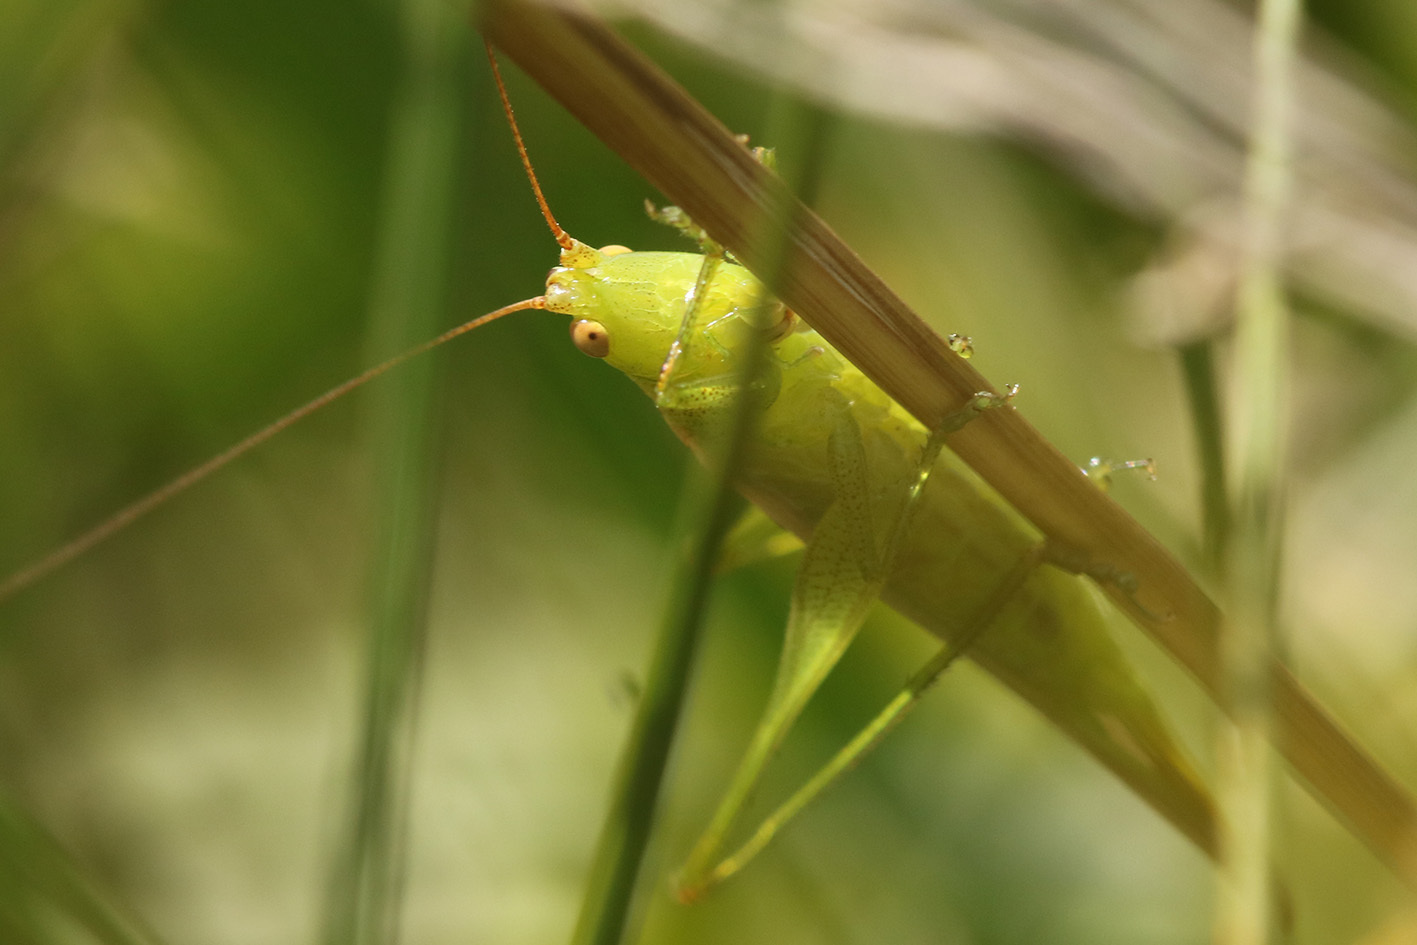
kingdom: Animalia
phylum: Arthropoda
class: Insecta
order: Orthoptera
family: Tettigoniidae
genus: Conocephalus
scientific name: Conocephalus longipes
